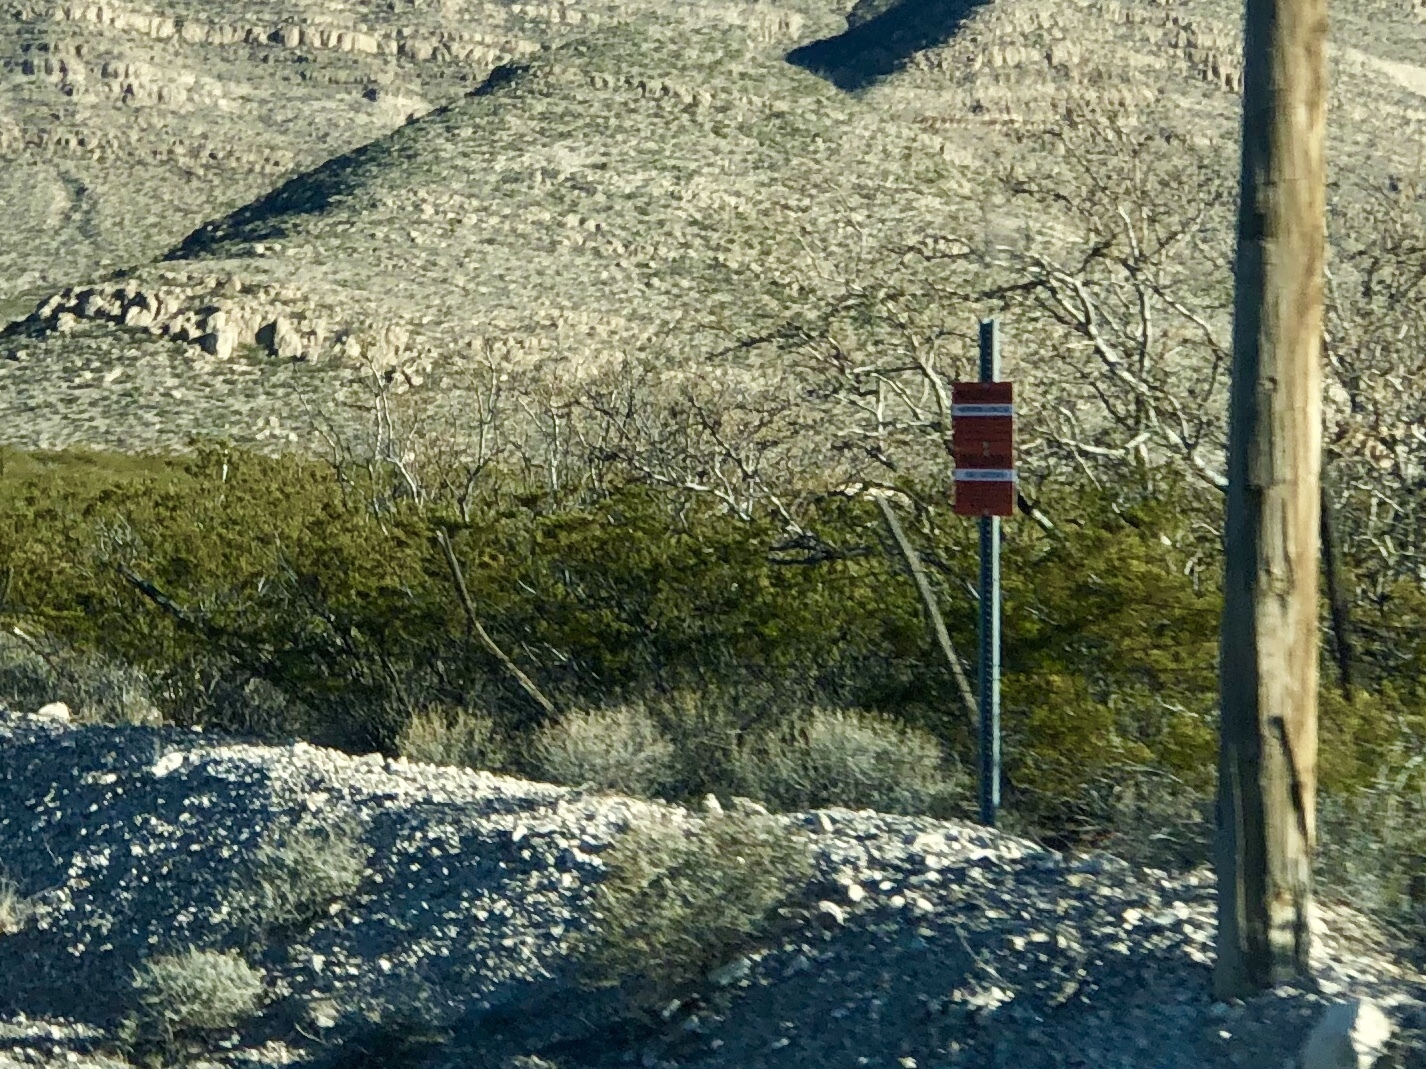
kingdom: Plantae
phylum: Tracheophyta
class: Magnoliopsida
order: Zygophyllales
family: Zygophyllaceae
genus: Larrea
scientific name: Larrea tridentata
